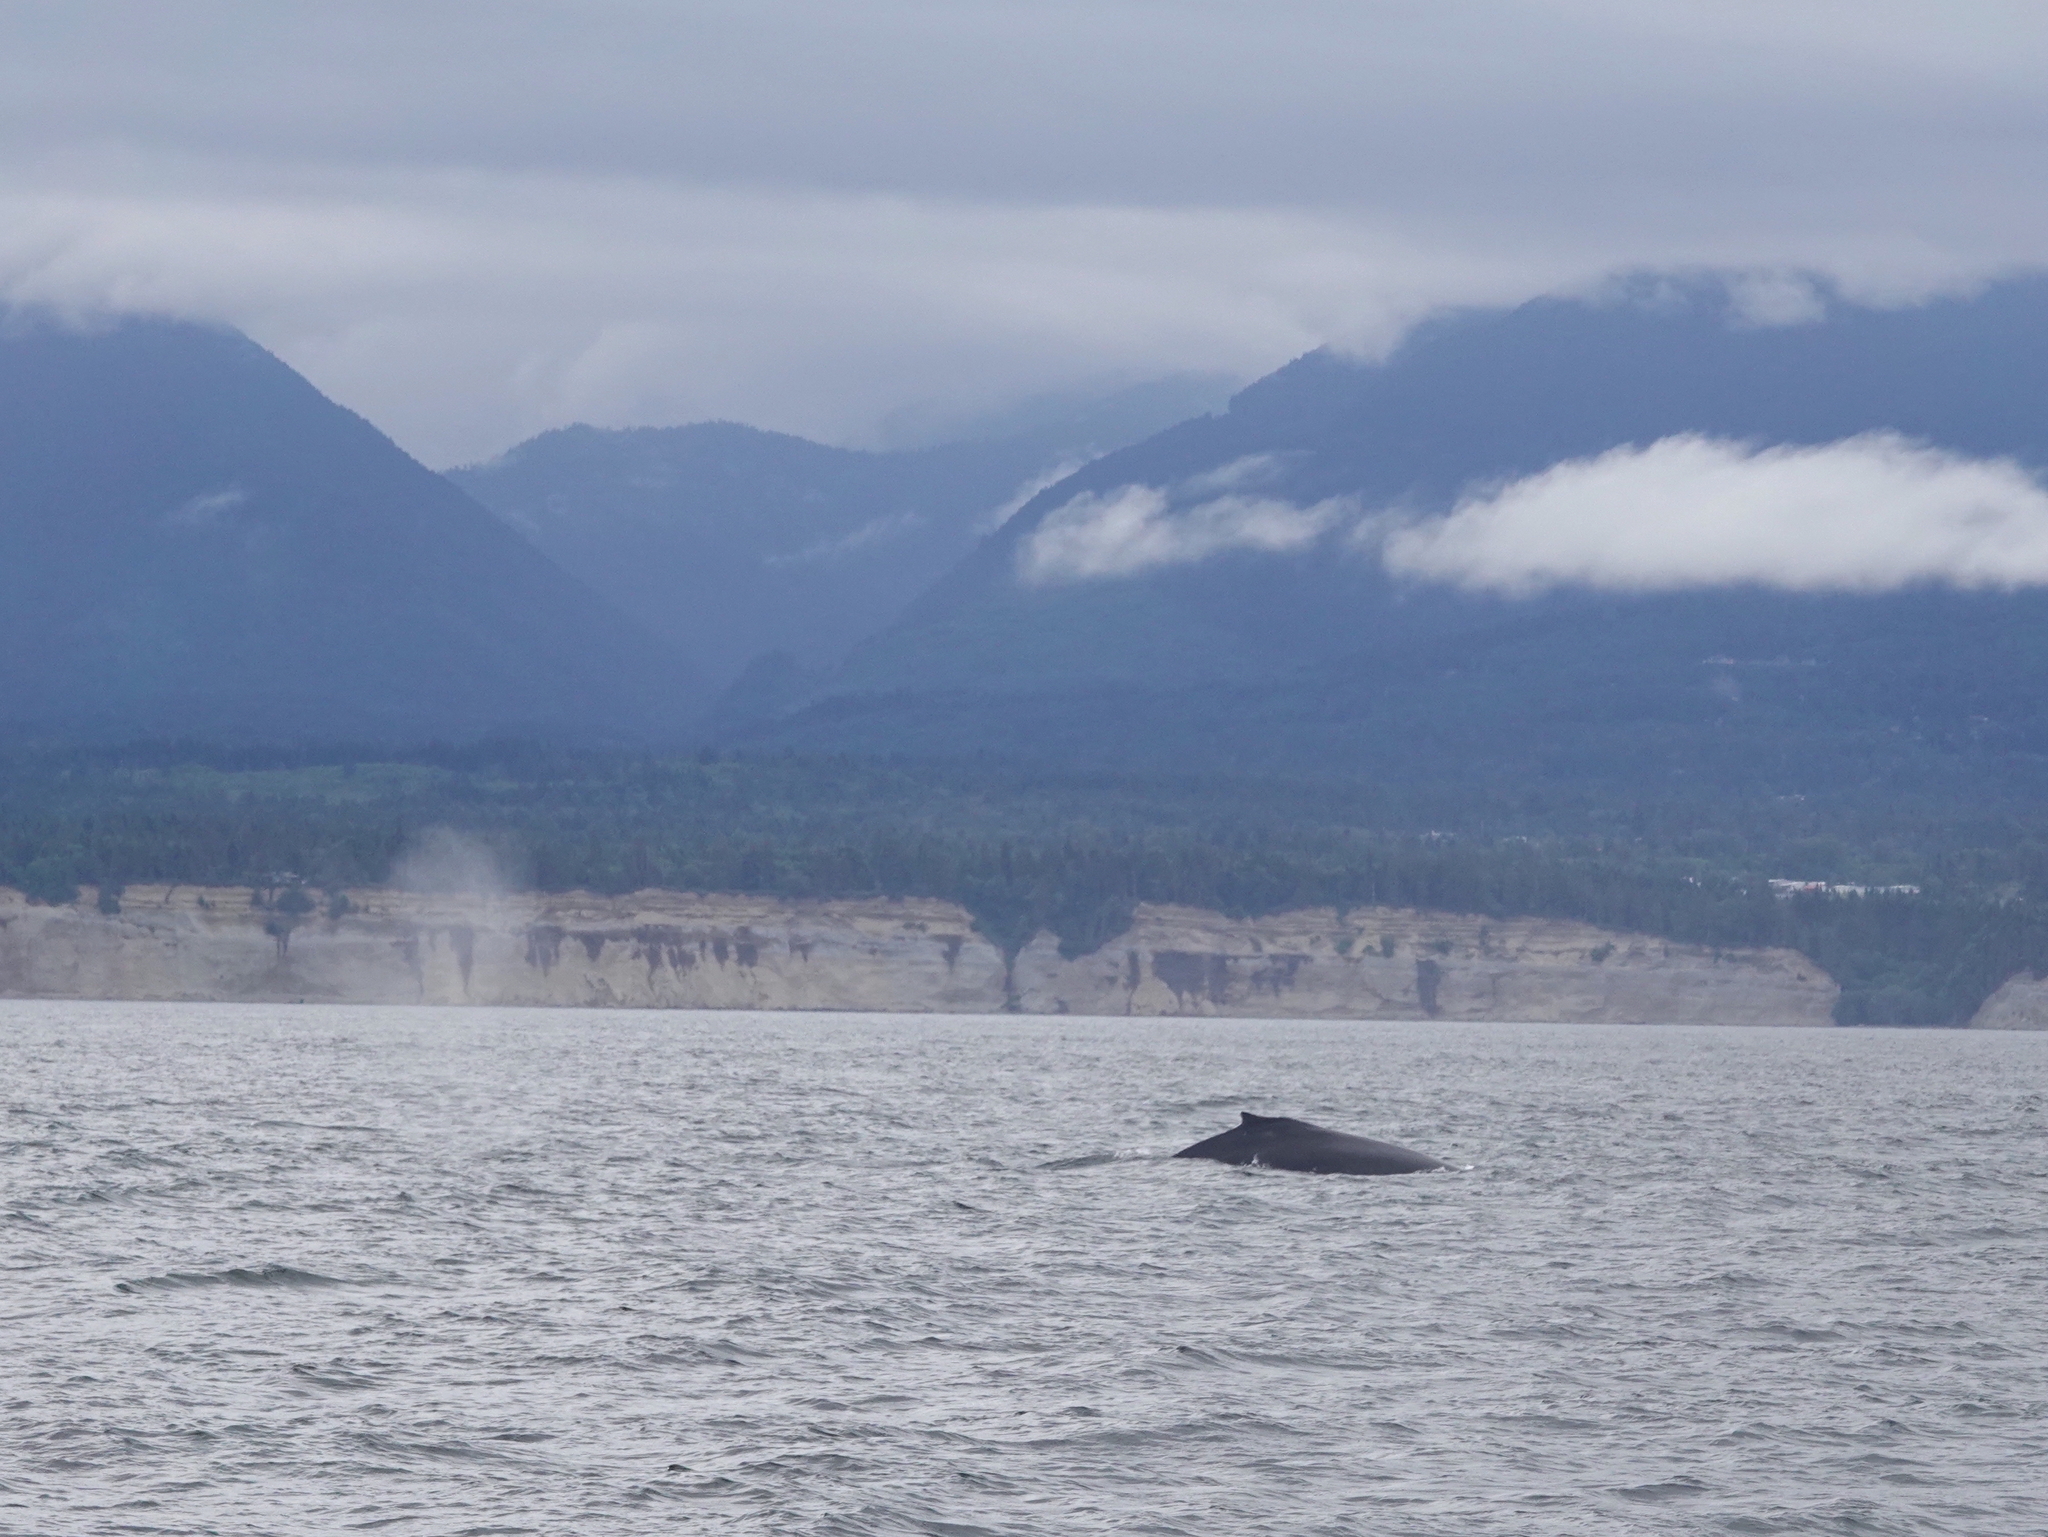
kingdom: Animalia
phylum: Chordata
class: Mammalia
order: Cetacea
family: Balaenopteridae
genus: Megaptera
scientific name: Megaptera novaeangliae
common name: Humpback whale
